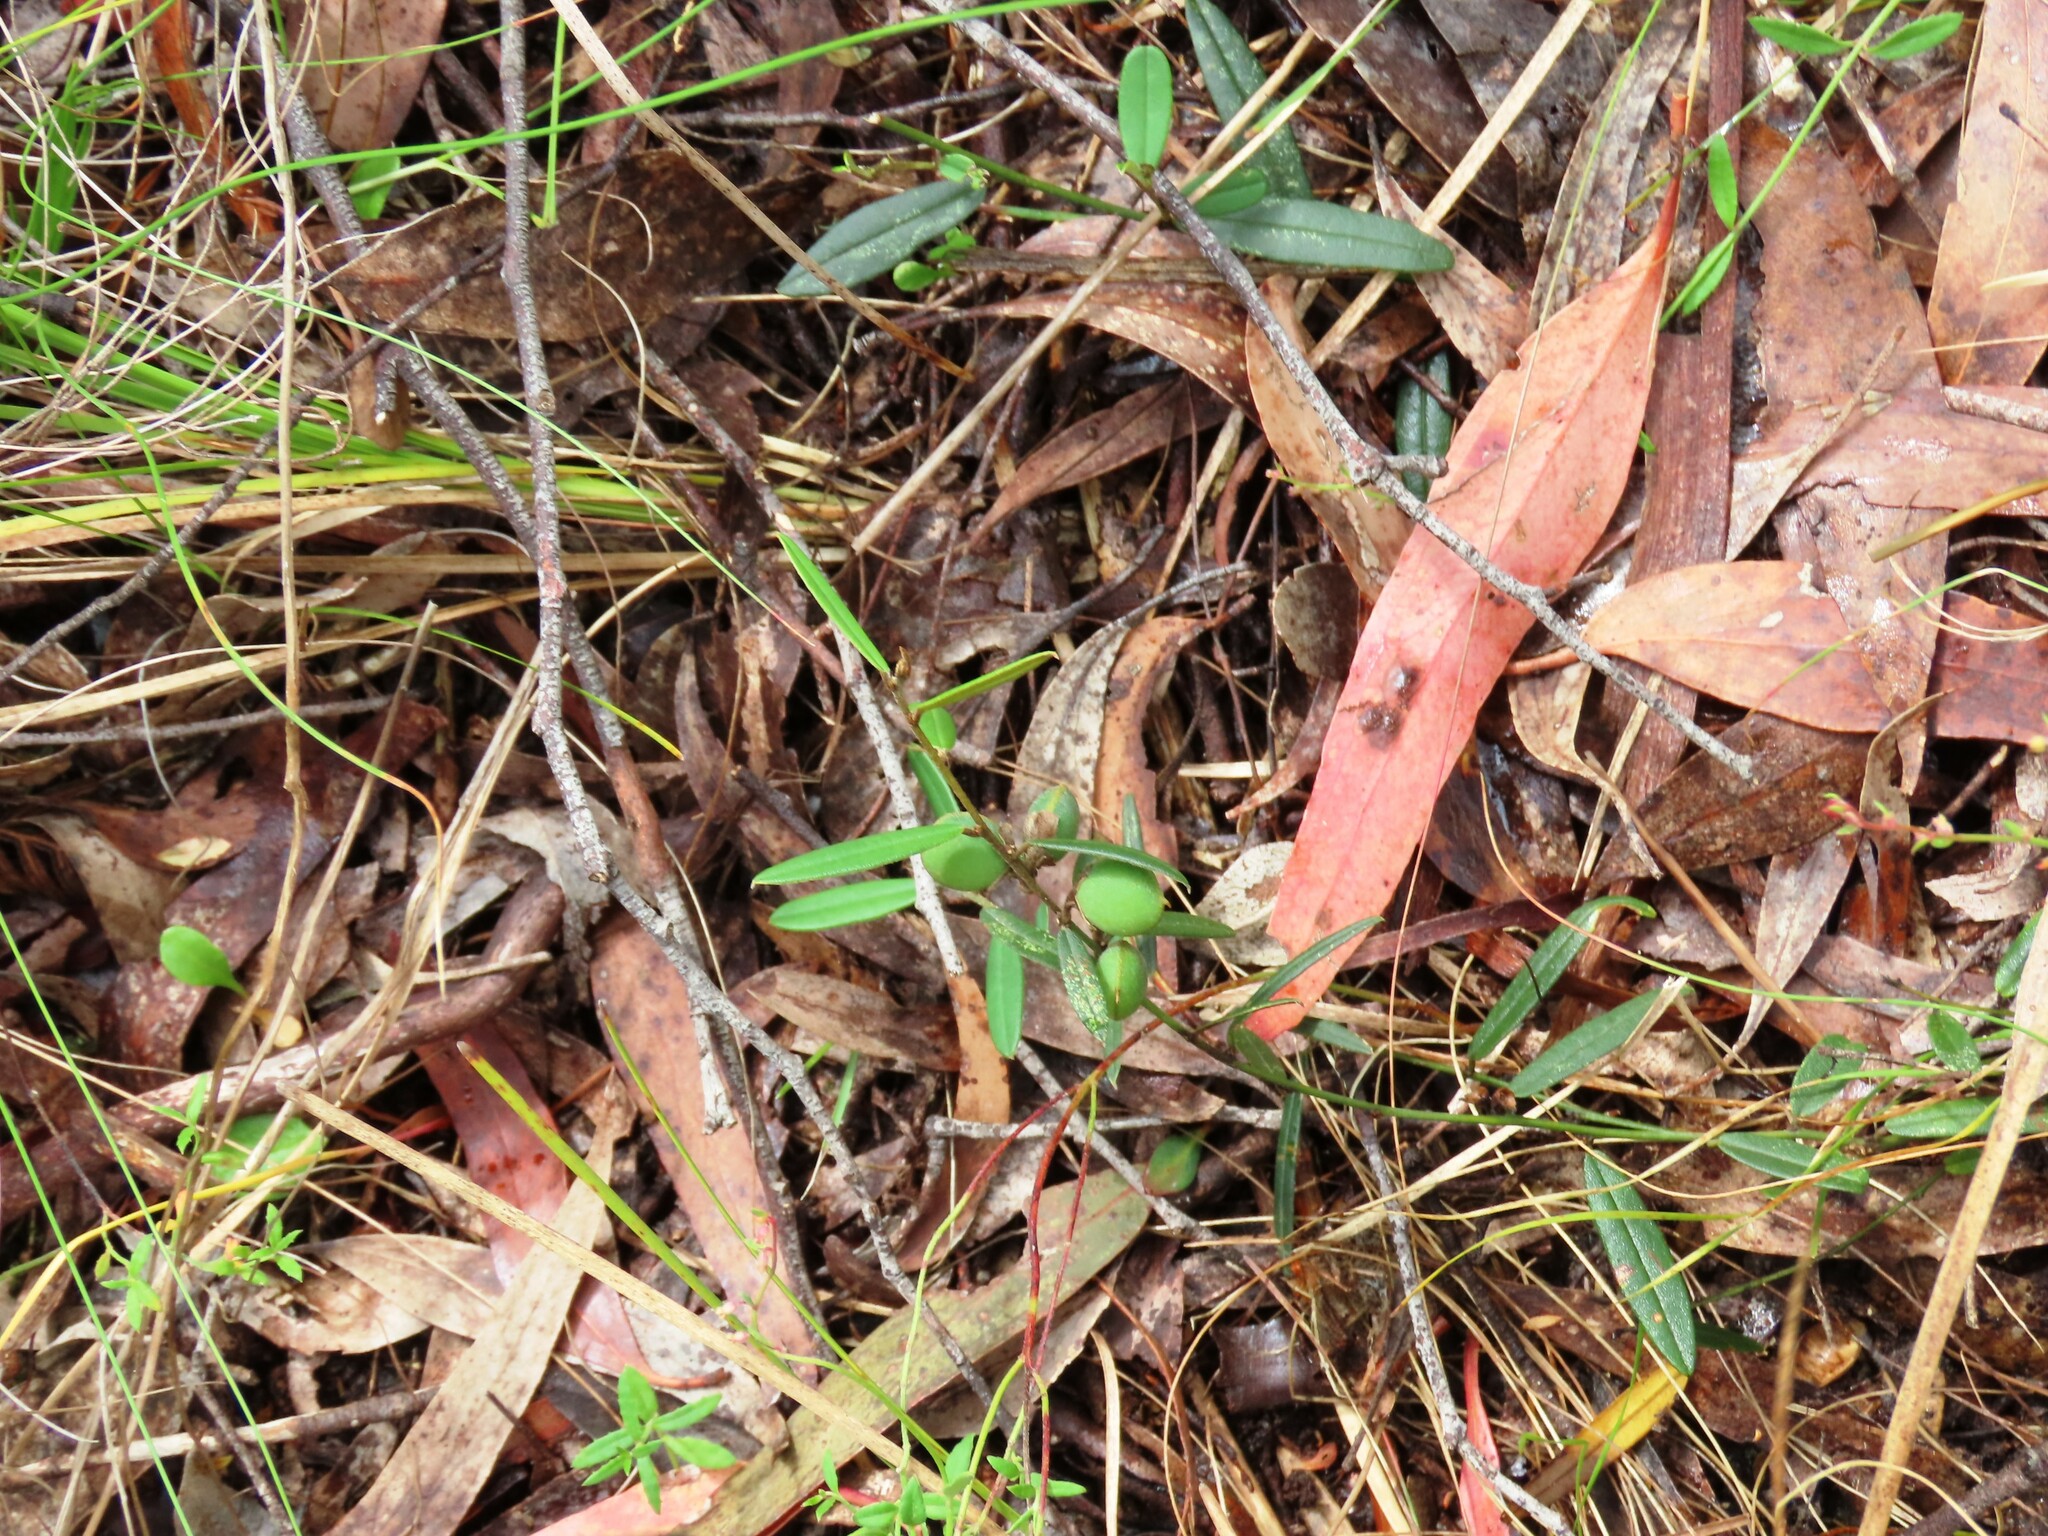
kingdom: Plantae
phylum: Tracheophyta
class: Magnoliopsida
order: Fabales
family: Fabaceae
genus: Hovea
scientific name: Hovea heterophylla
